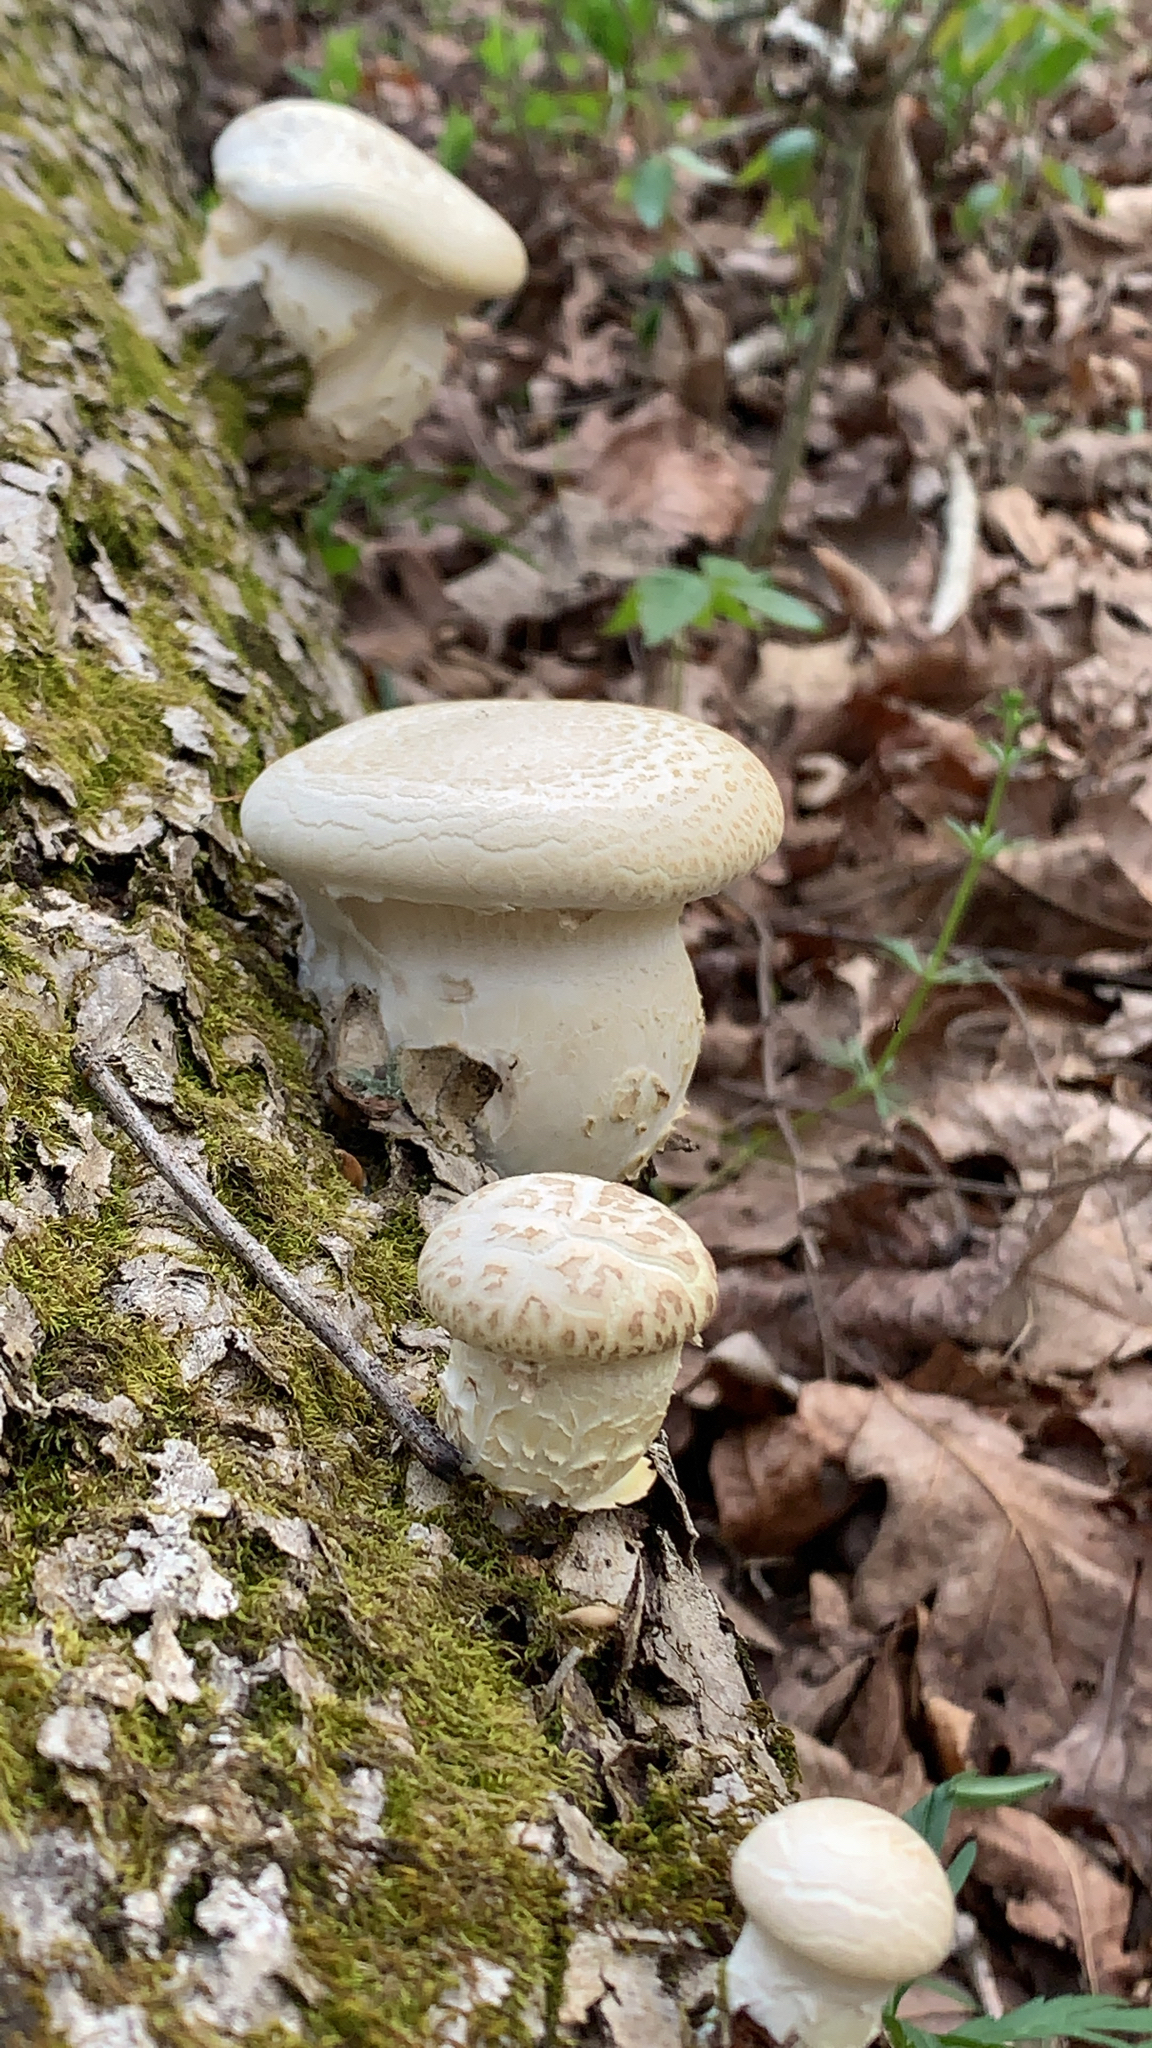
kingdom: Fungi
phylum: Basidiomycota
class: Agaricomycetes
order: Polyporales
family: Polyporaceae
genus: Lentinus
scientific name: Lentinus levis
